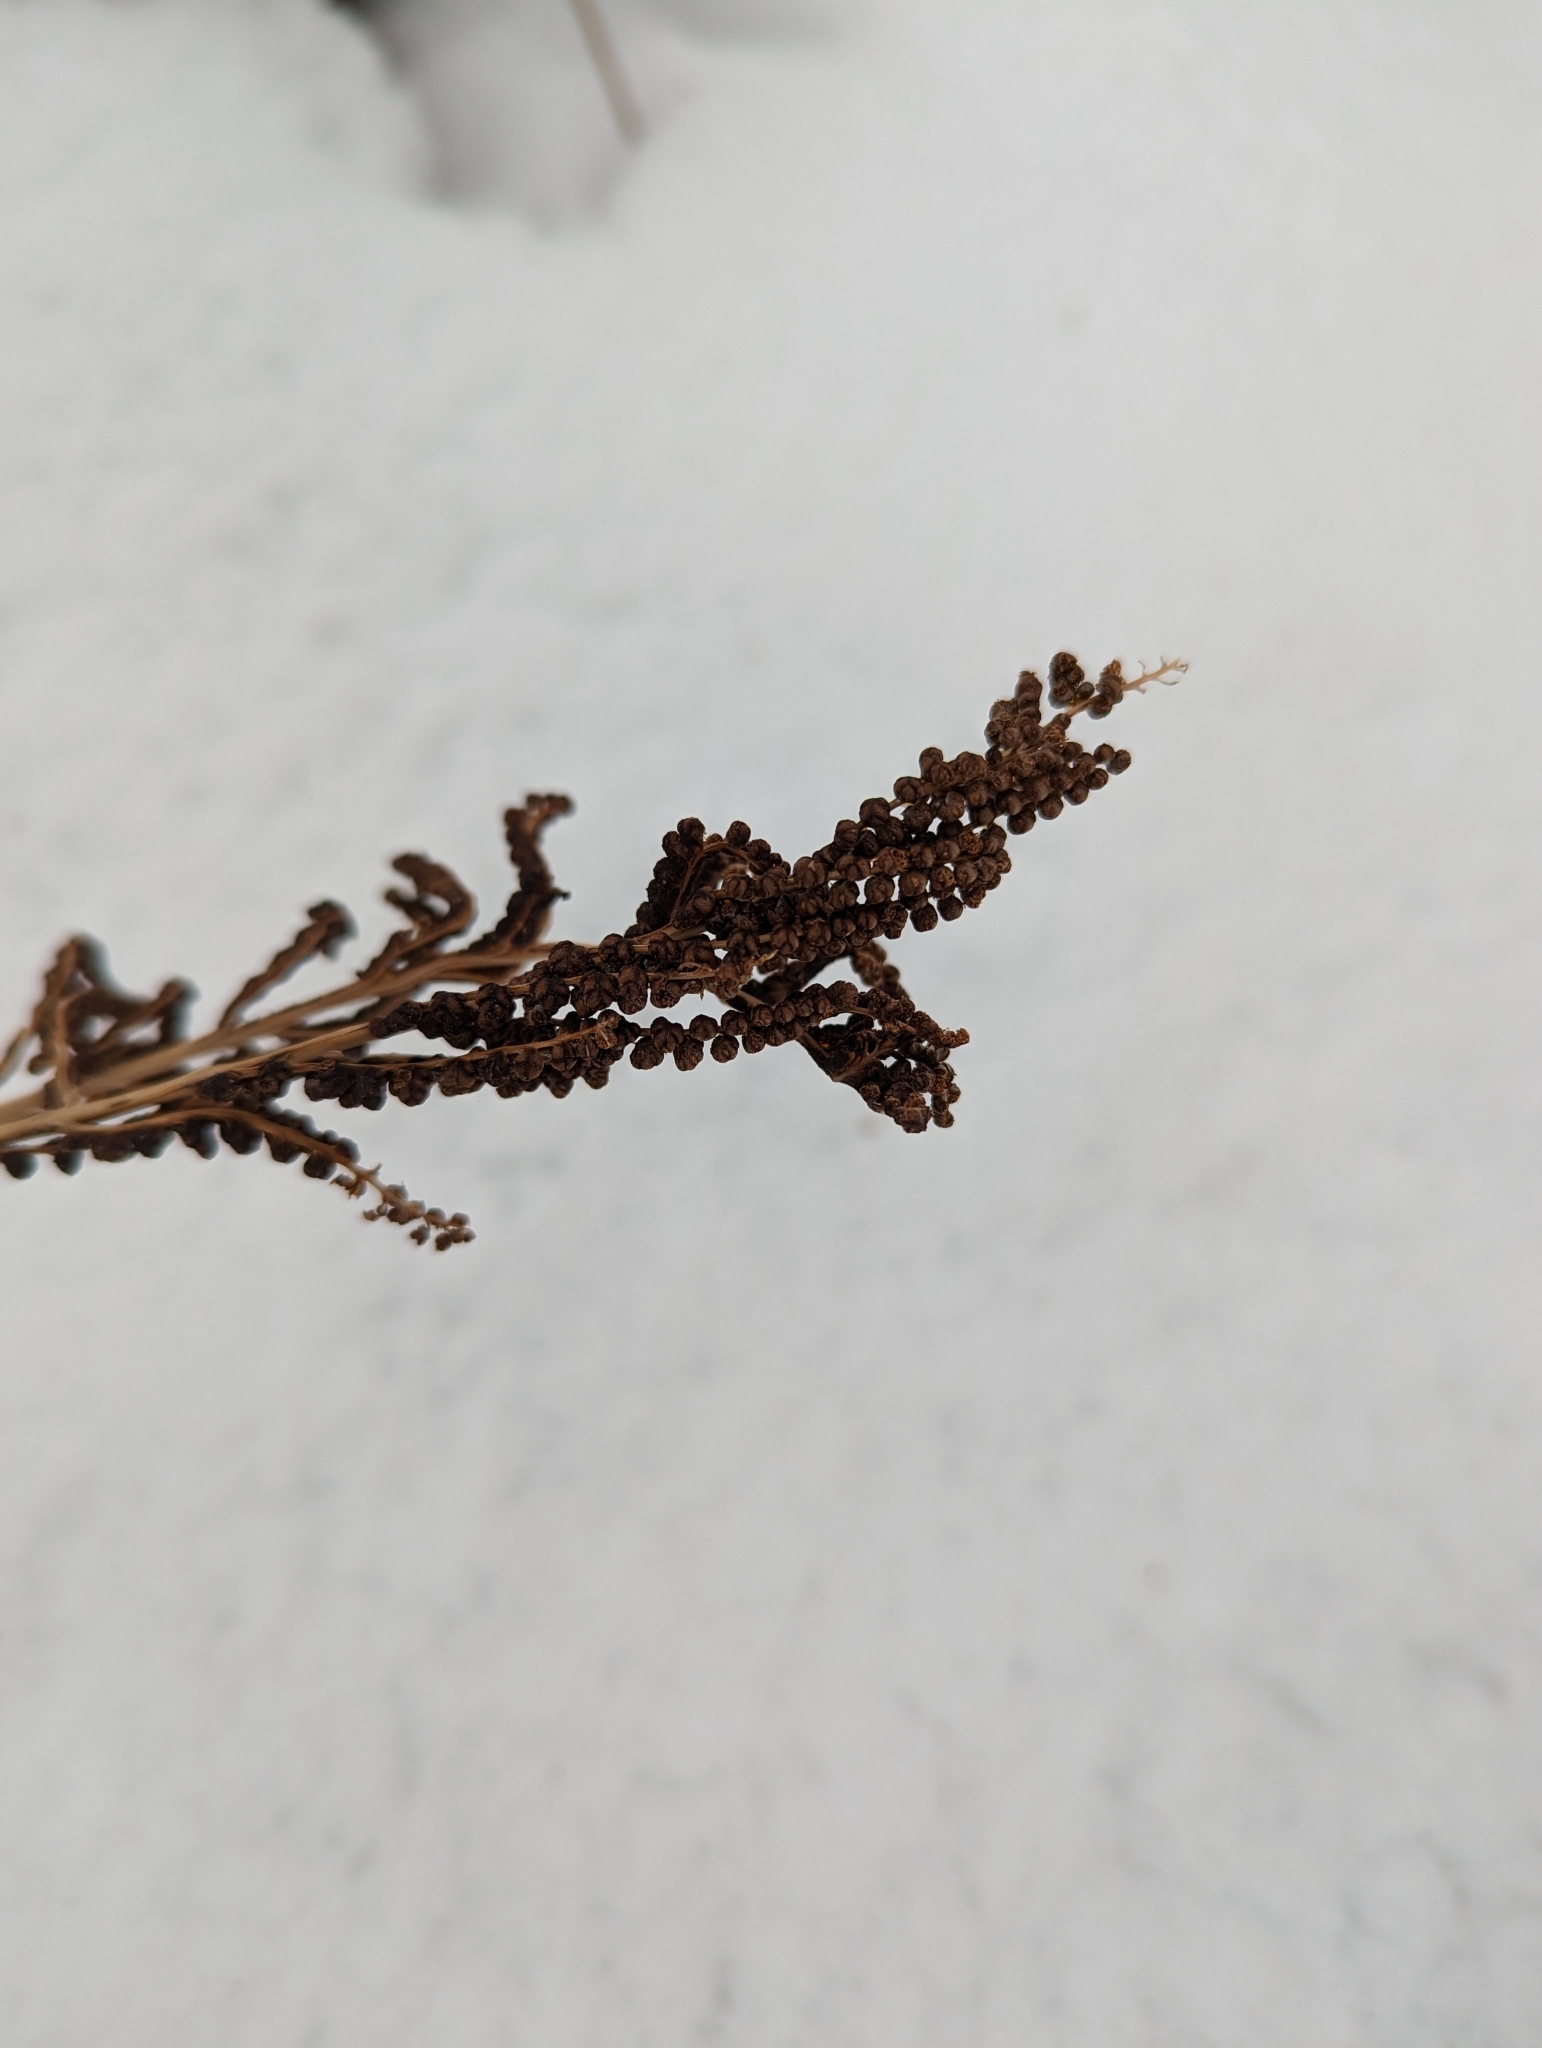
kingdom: Plantae
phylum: Tracheophyta
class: Polypodiopsida
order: Polypodiales
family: Onocleaceae
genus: Onoclea
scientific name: Onoclea sensibilis
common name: Sensitive fern
